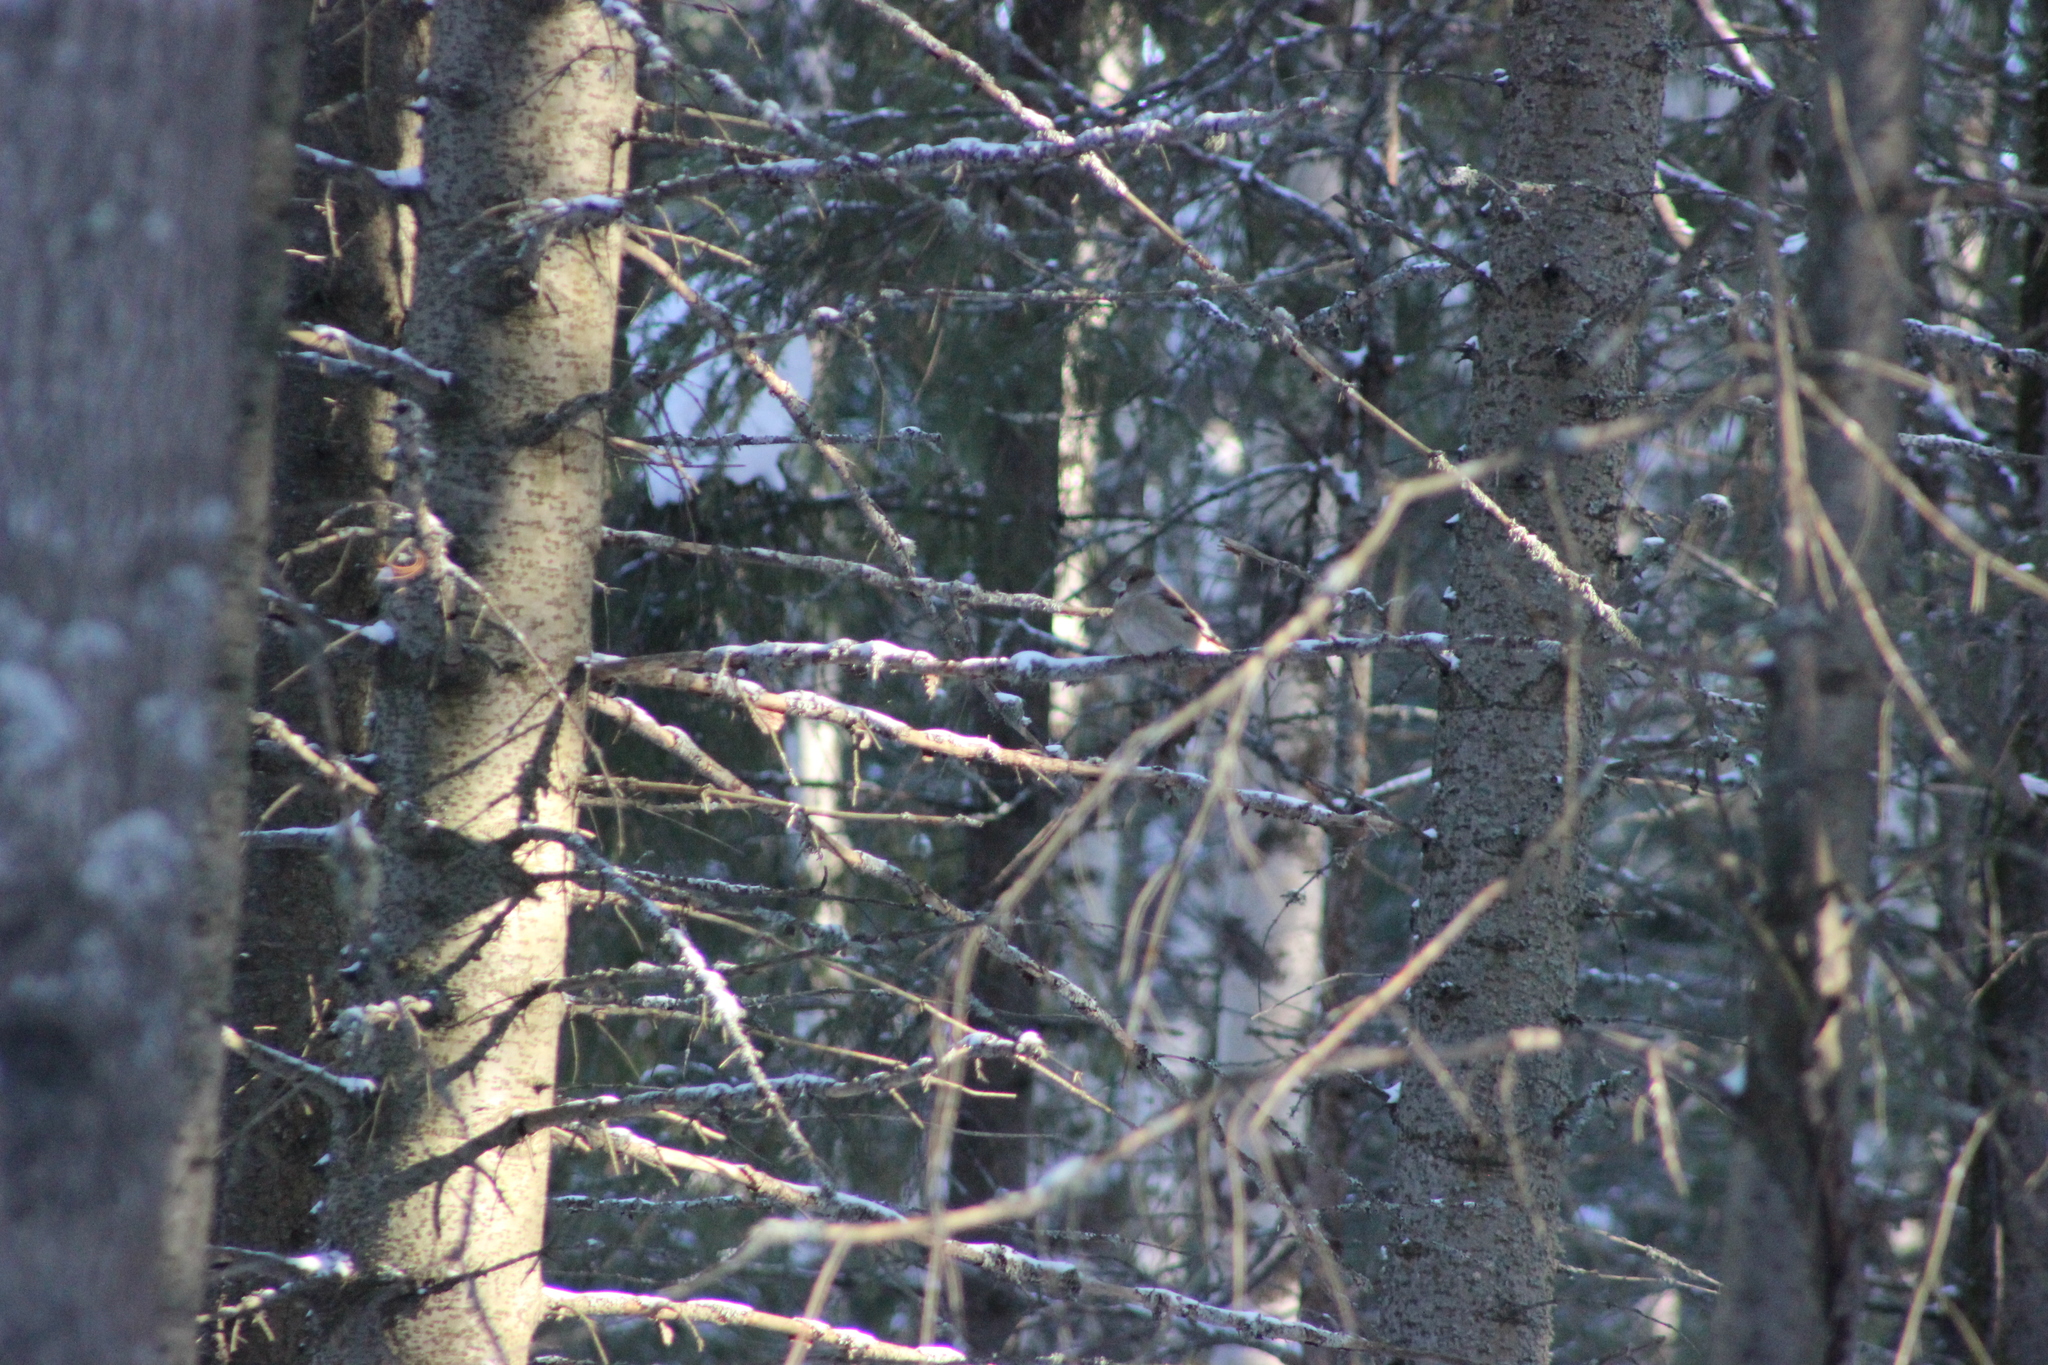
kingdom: Animalia
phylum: Chordata
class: Aves
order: Passeriformes
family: Fringillidae
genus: Coccothraustes
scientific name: Coccothraustes coccothraustes
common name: Hawfinch
